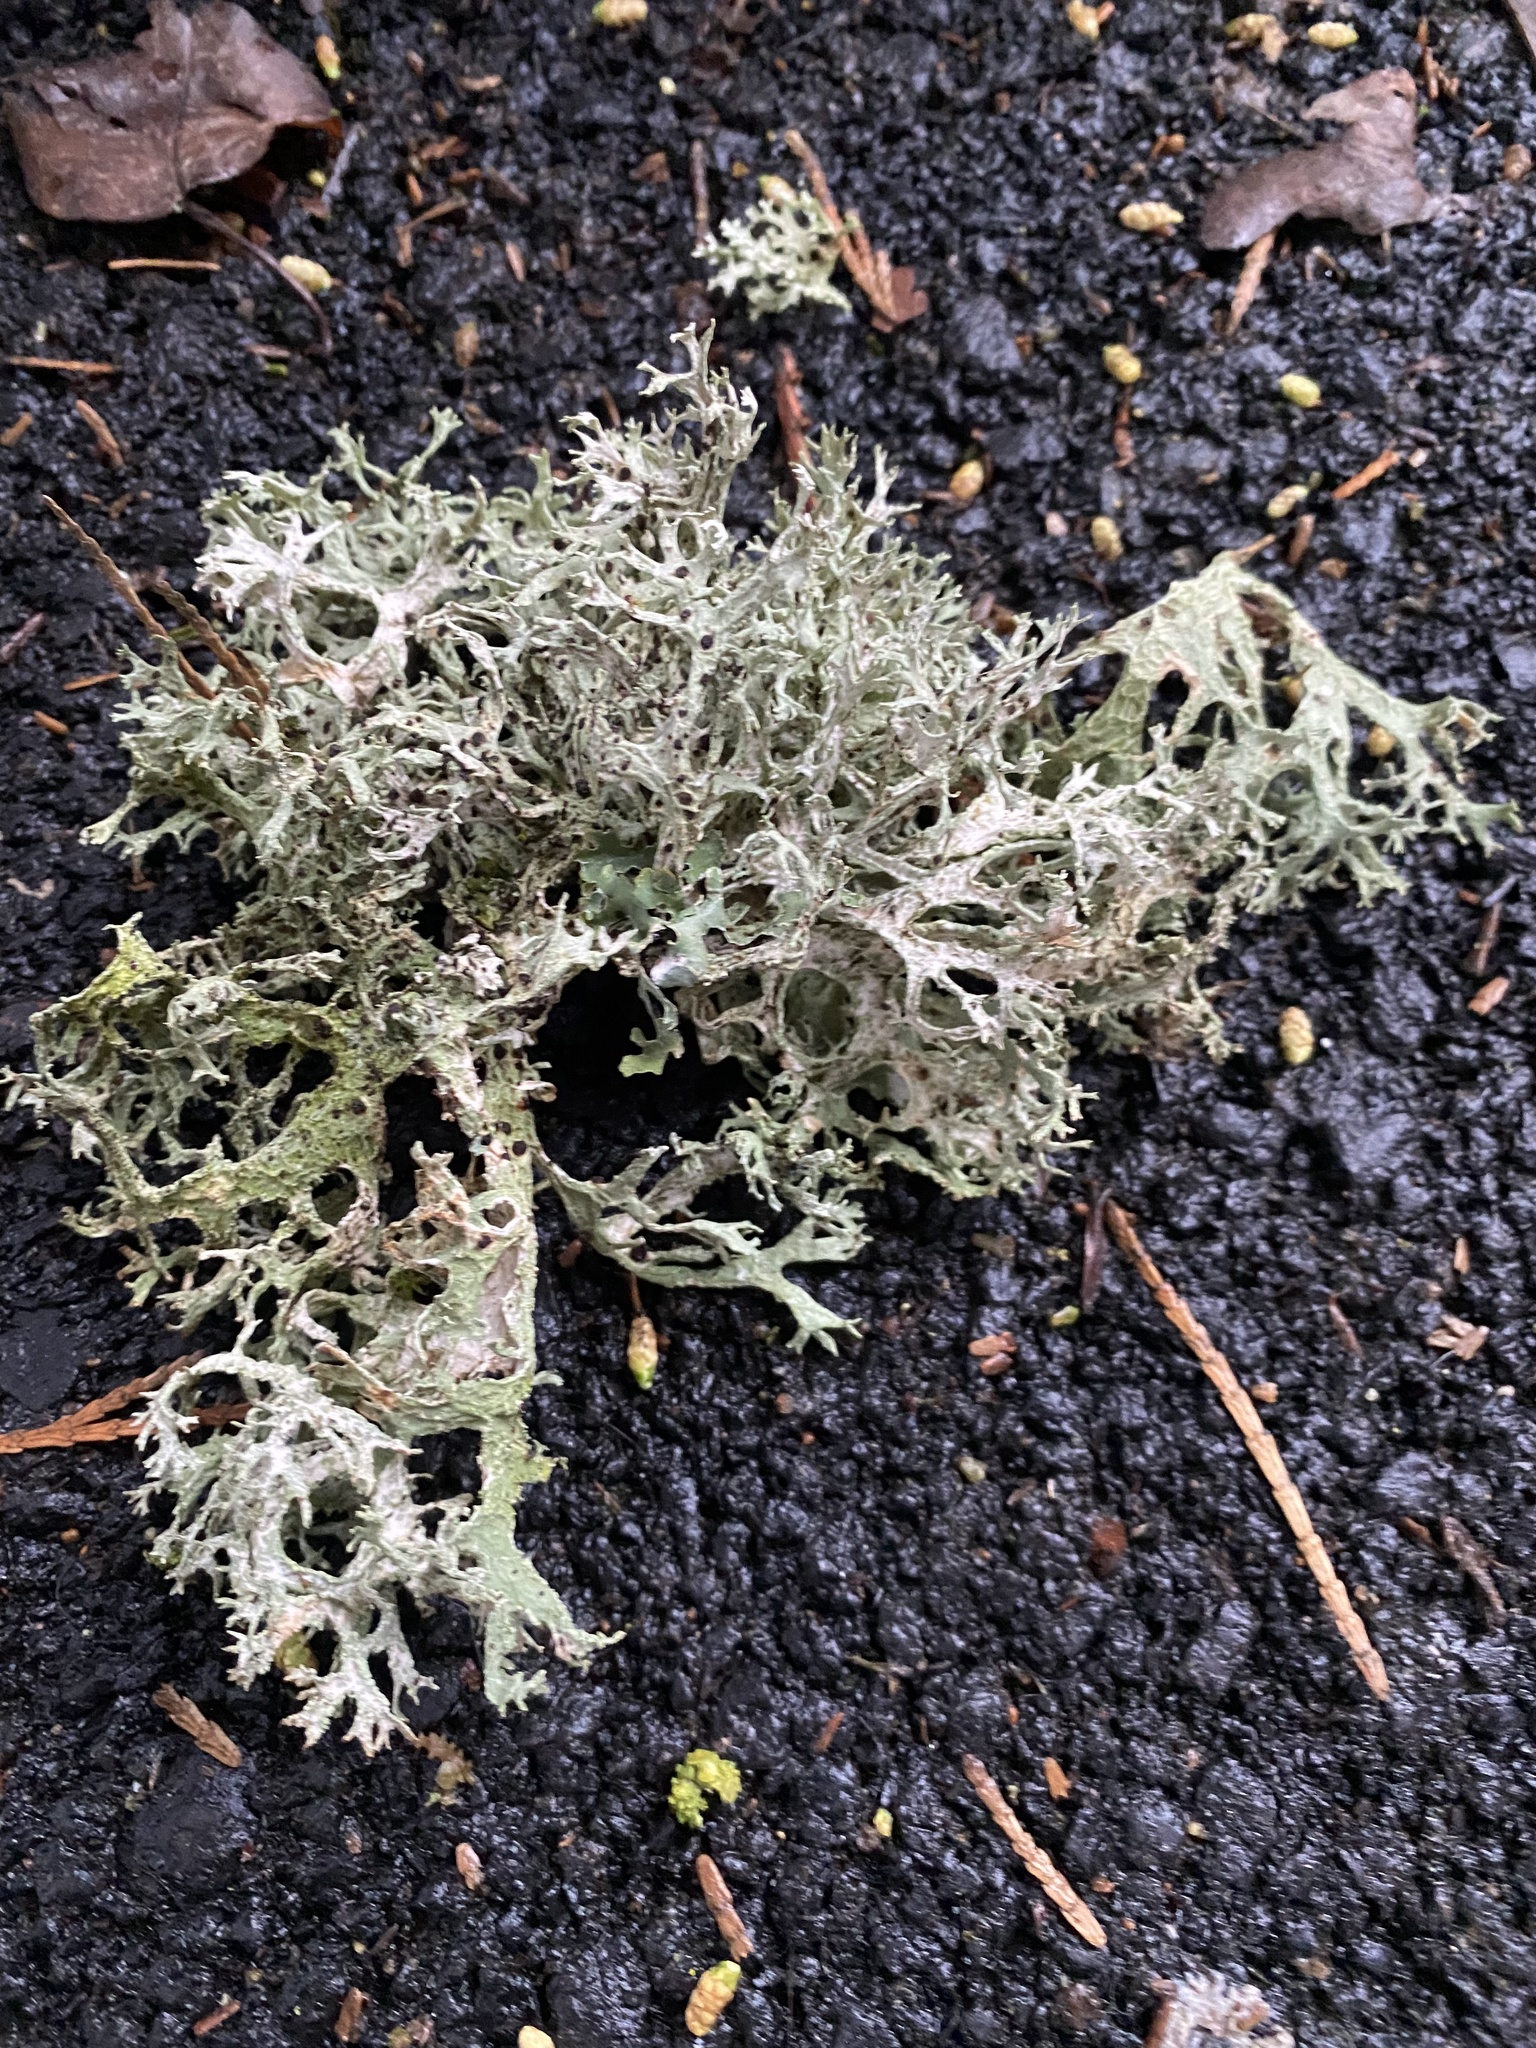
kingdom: Fungi
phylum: Ascomycota
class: Lecanoromycetes
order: Lecanorales
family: Parmeliaceae
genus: Evernia
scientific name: Evernia prunastri
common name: Oak moss
